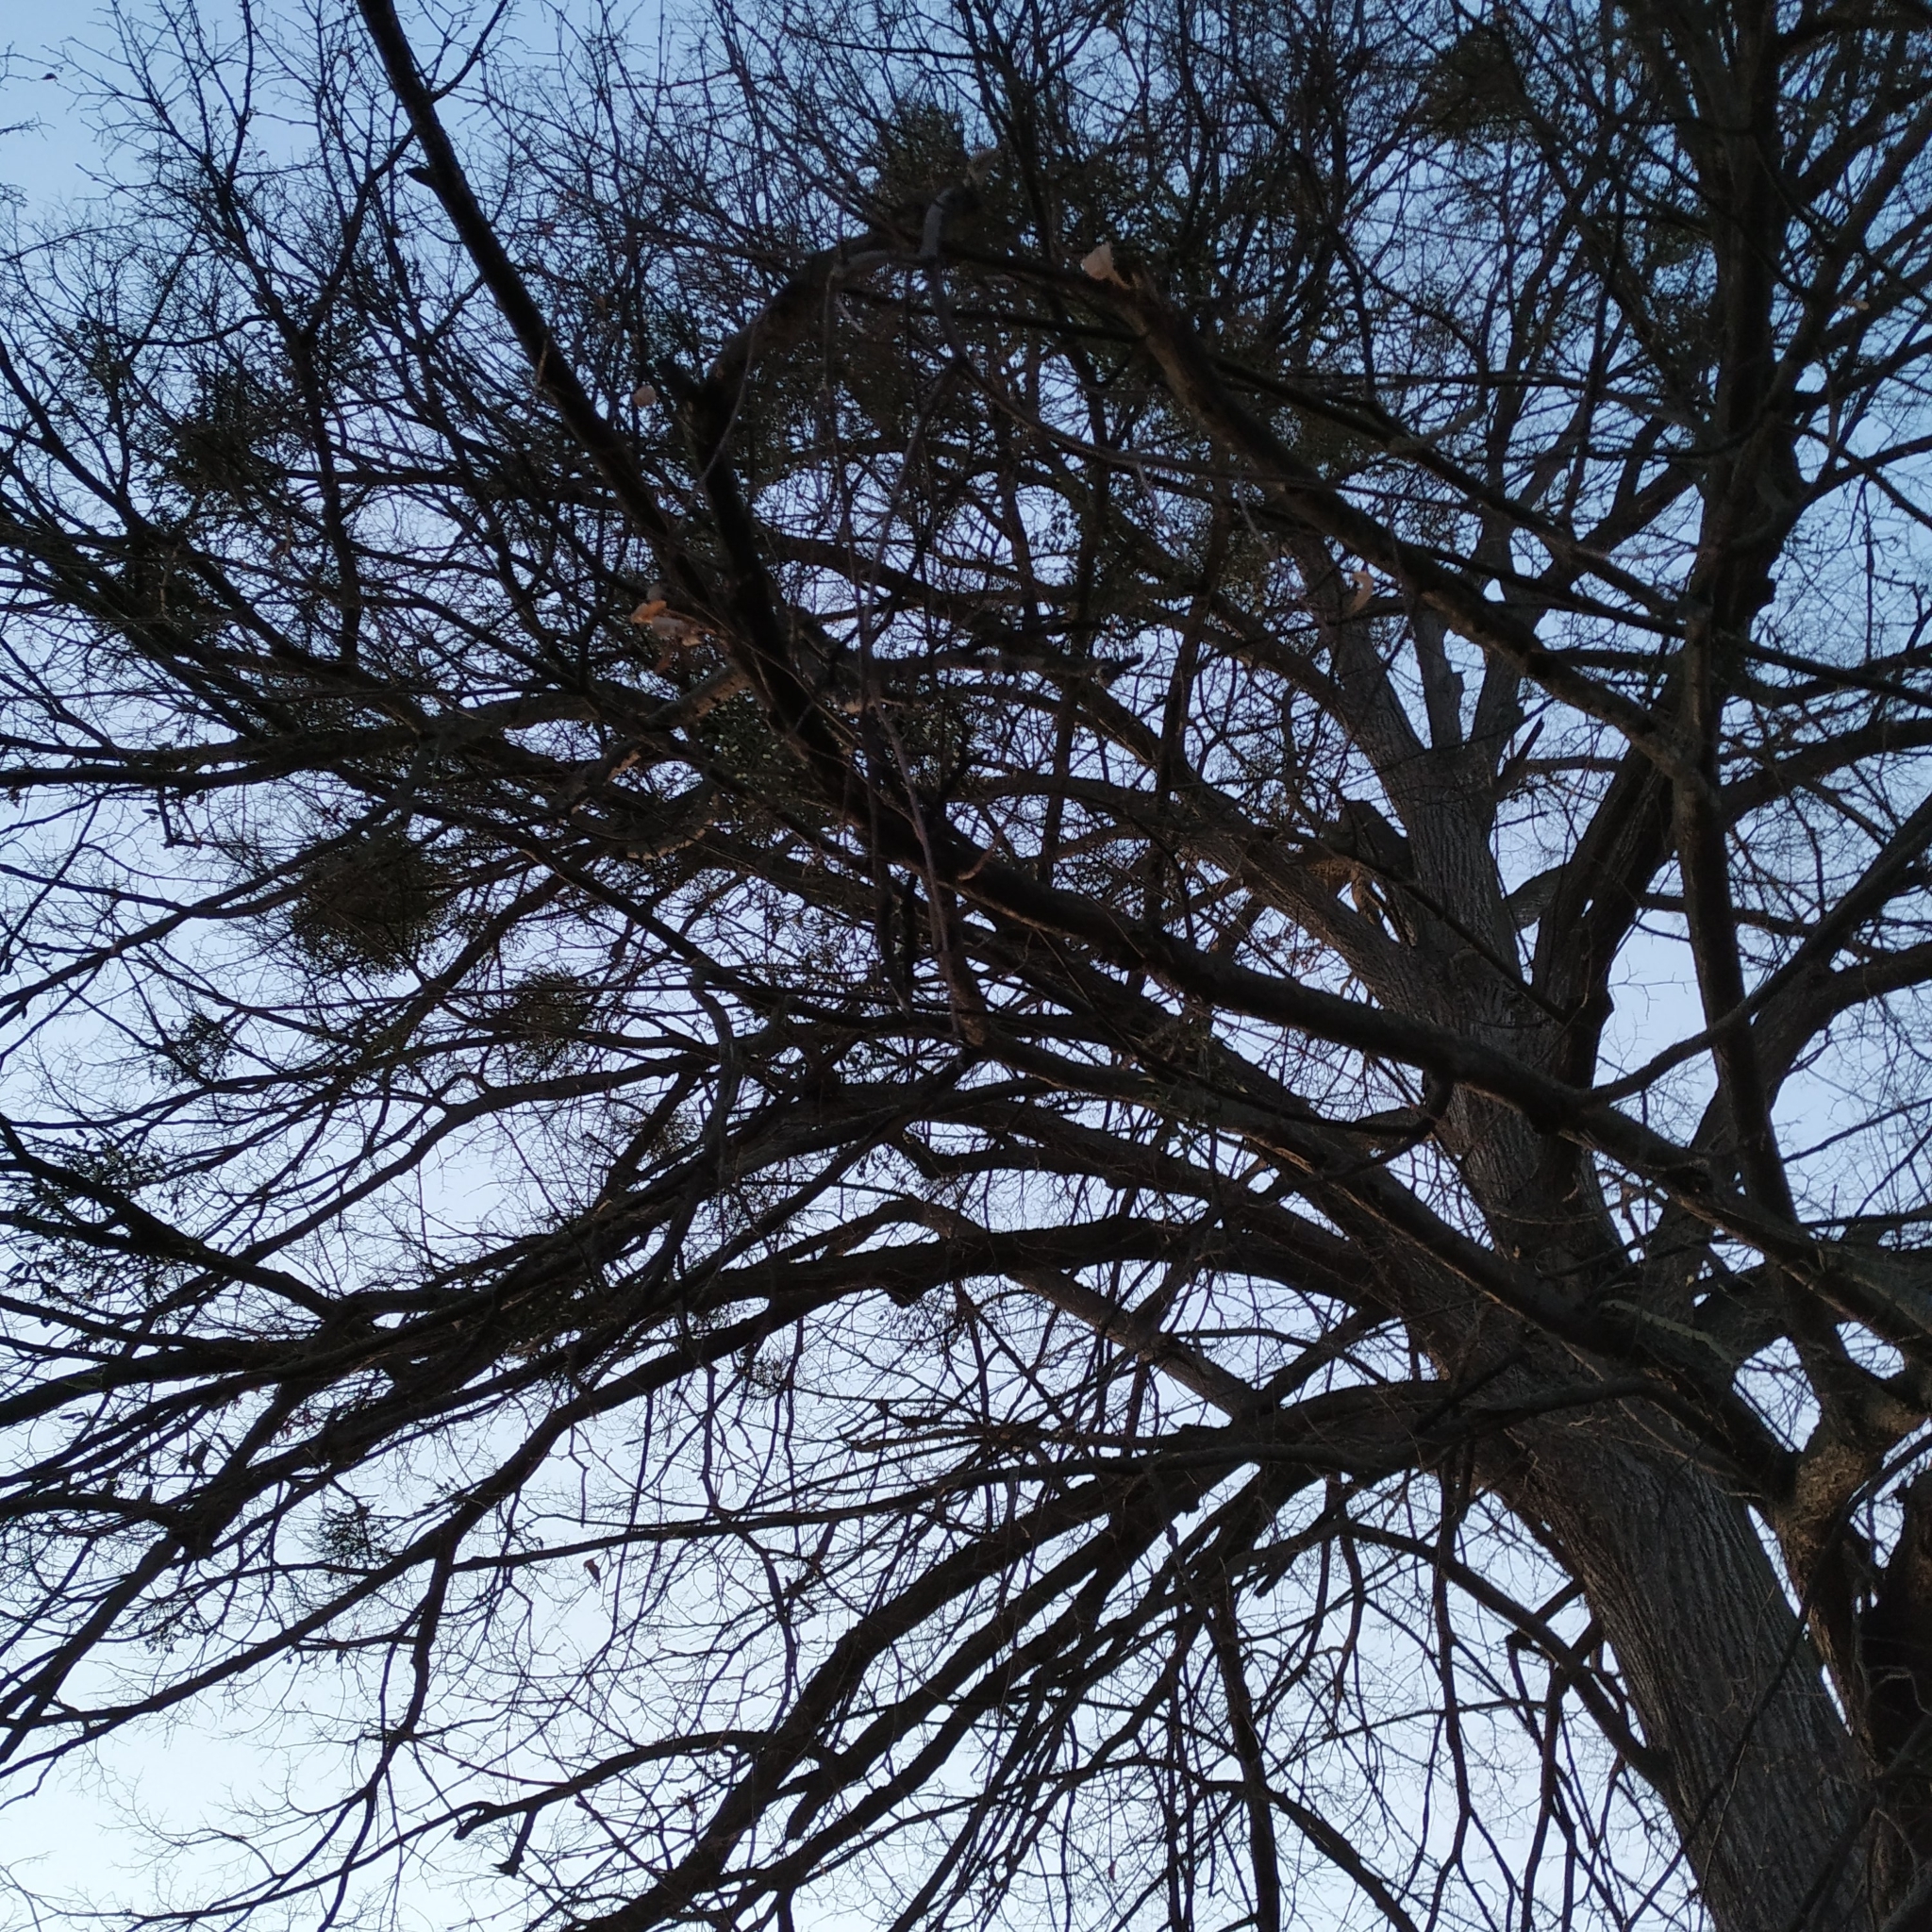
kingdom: Plantae
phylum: Tracheophyta
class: Magnoliopsida
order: Santalales
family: Viscaceae
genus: Viscum
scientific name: Viscum album
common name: Mistletoe
